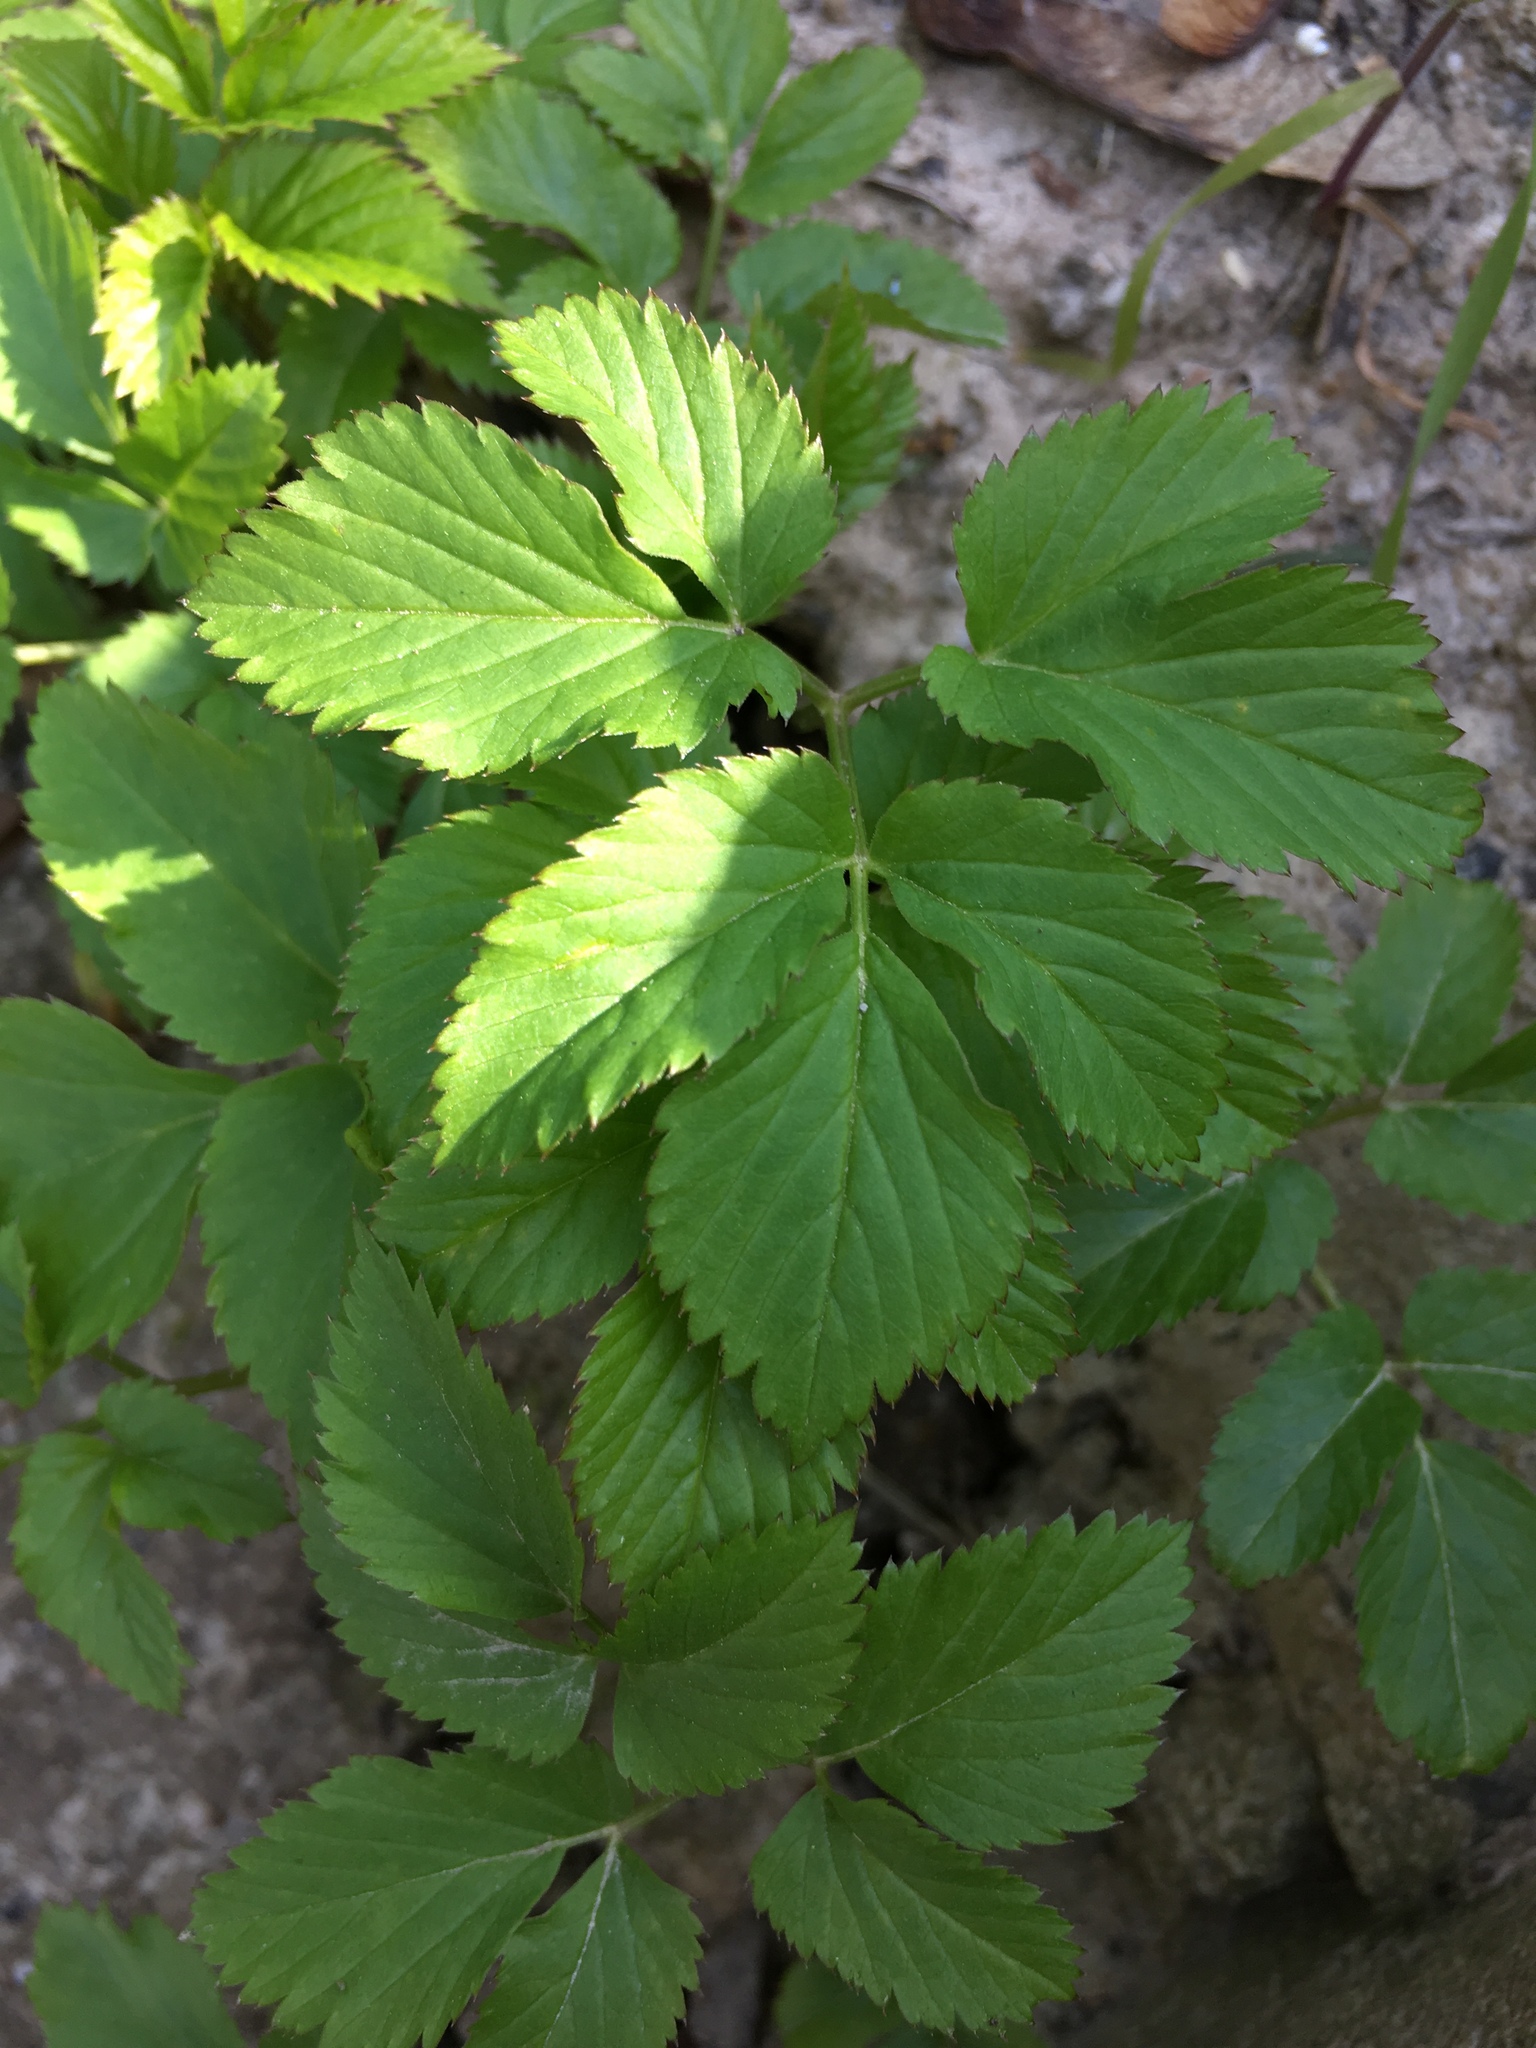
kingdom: Plantae
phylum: Tracheophyta
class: Magnoliopsida
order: Apiales
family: Apiaceae
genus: Aegopodium
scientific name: Aegopodium podagraria
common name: Ground-elder
